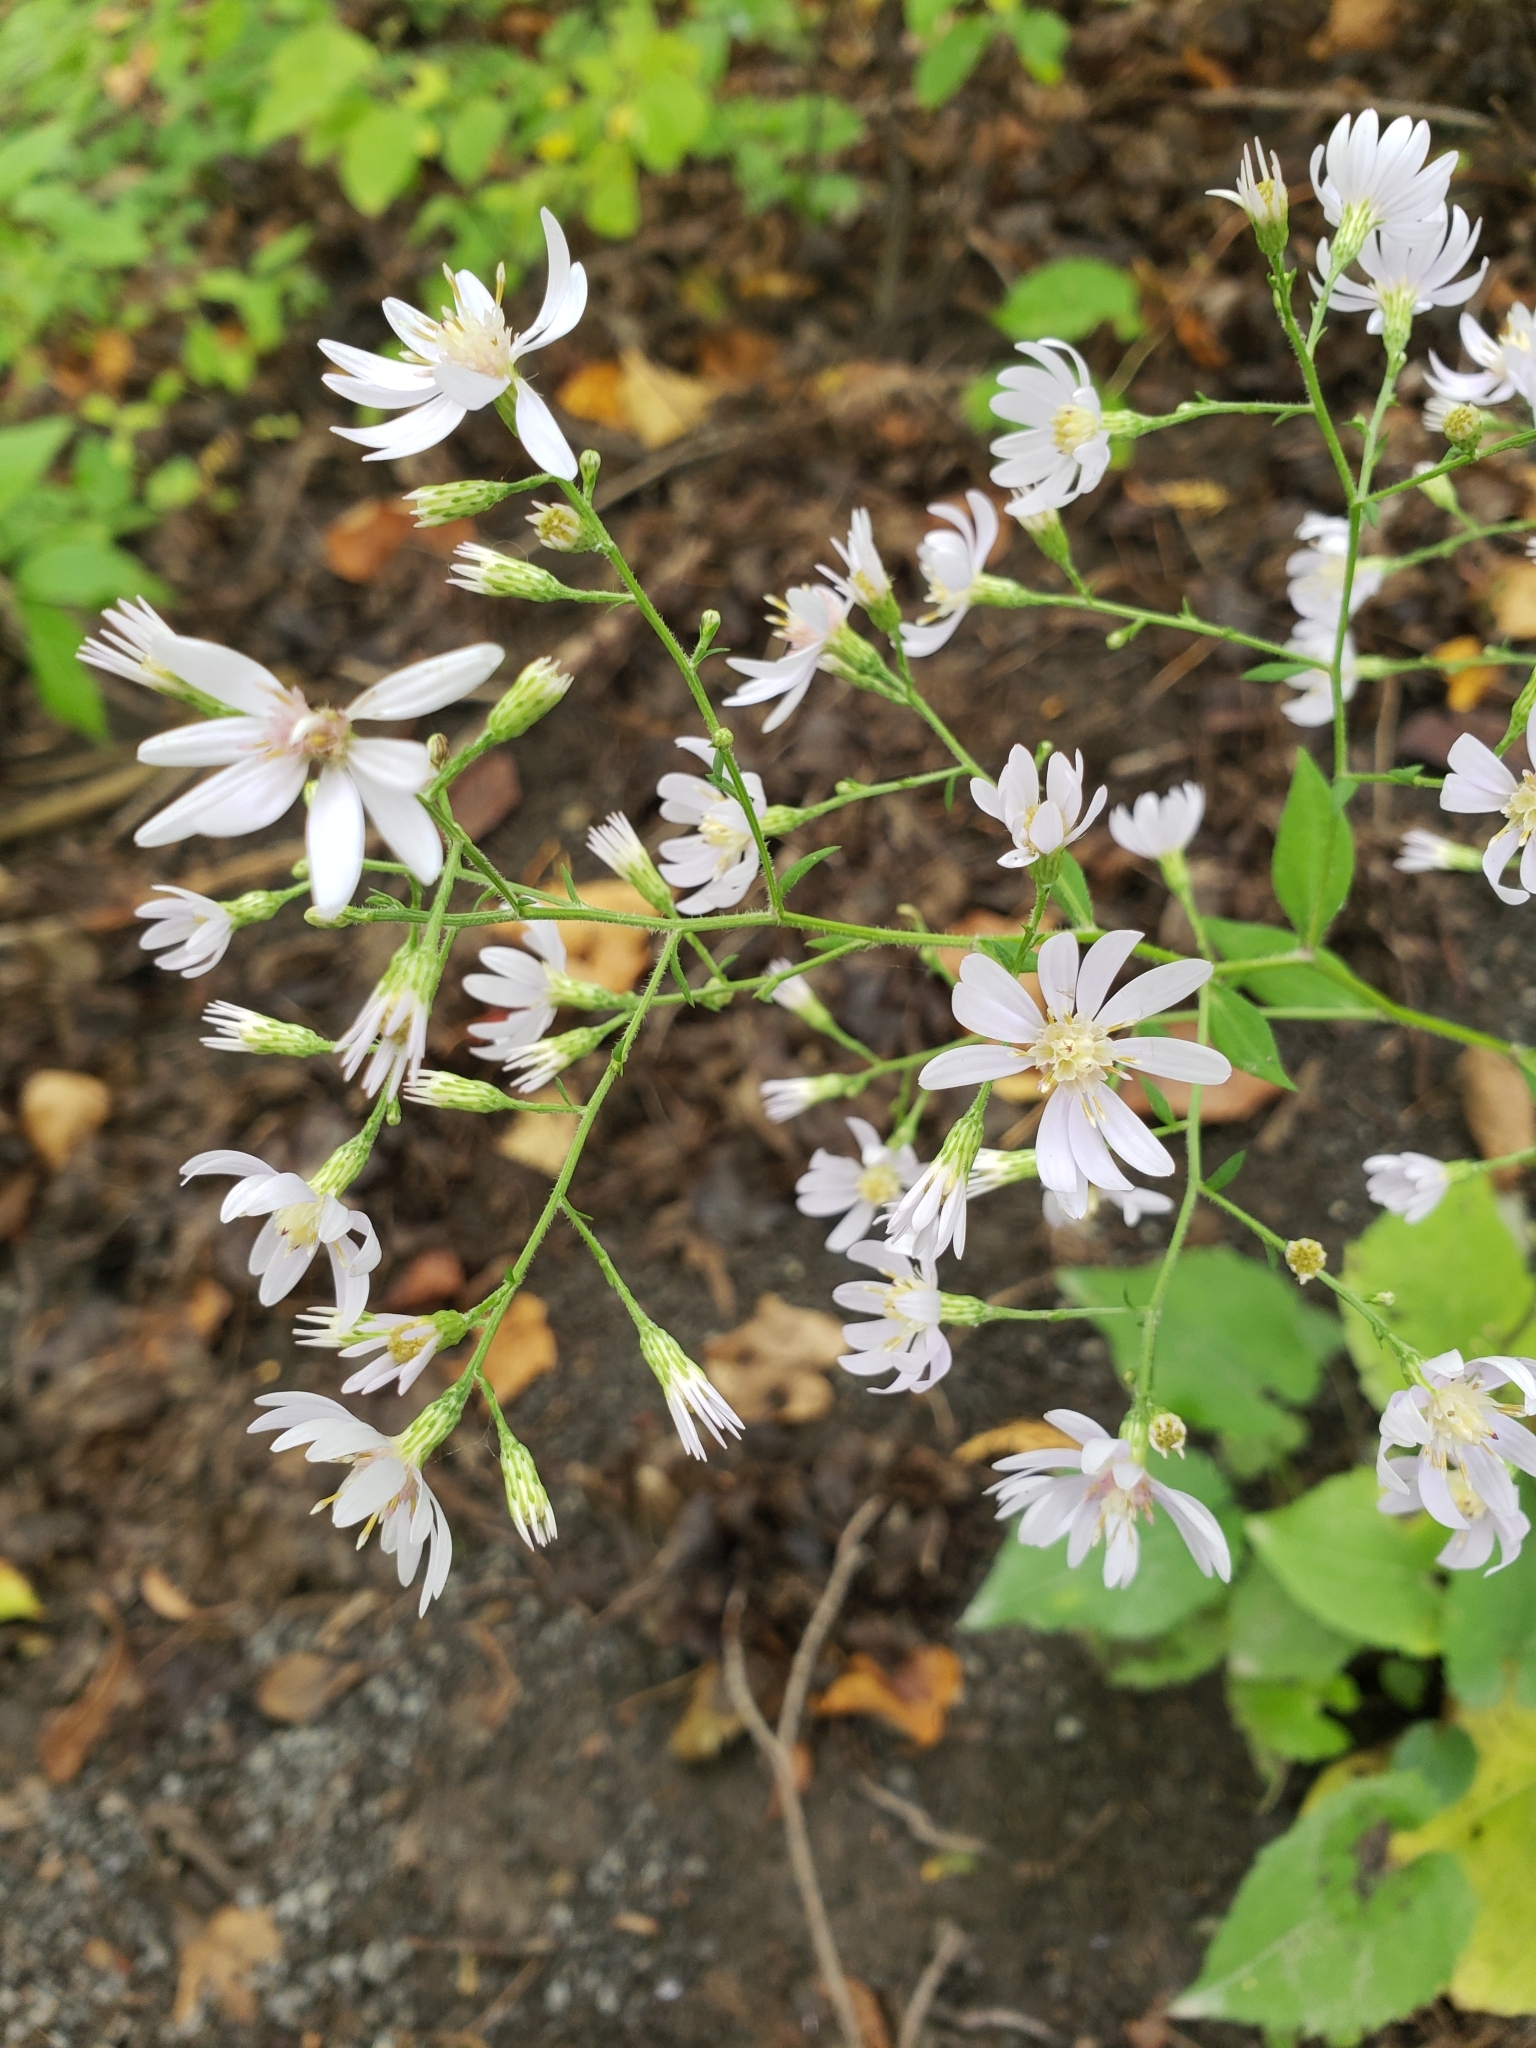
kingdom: Plantae
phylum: Tracheophyta
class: Magnoliopsida
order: Asterales
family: Asteraceae
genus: Symphyotrichum
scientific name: Symphyotrichum cordifolium
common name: Beeweed
